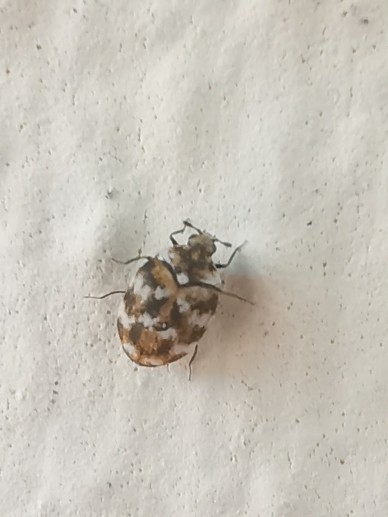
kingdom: Animalia
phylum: Arthropoda
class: Insecta
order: Coleoptera
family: Dermestidae
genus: Anthrenus
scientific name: Anthrenus verbasci
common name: Varied carpet beetle
